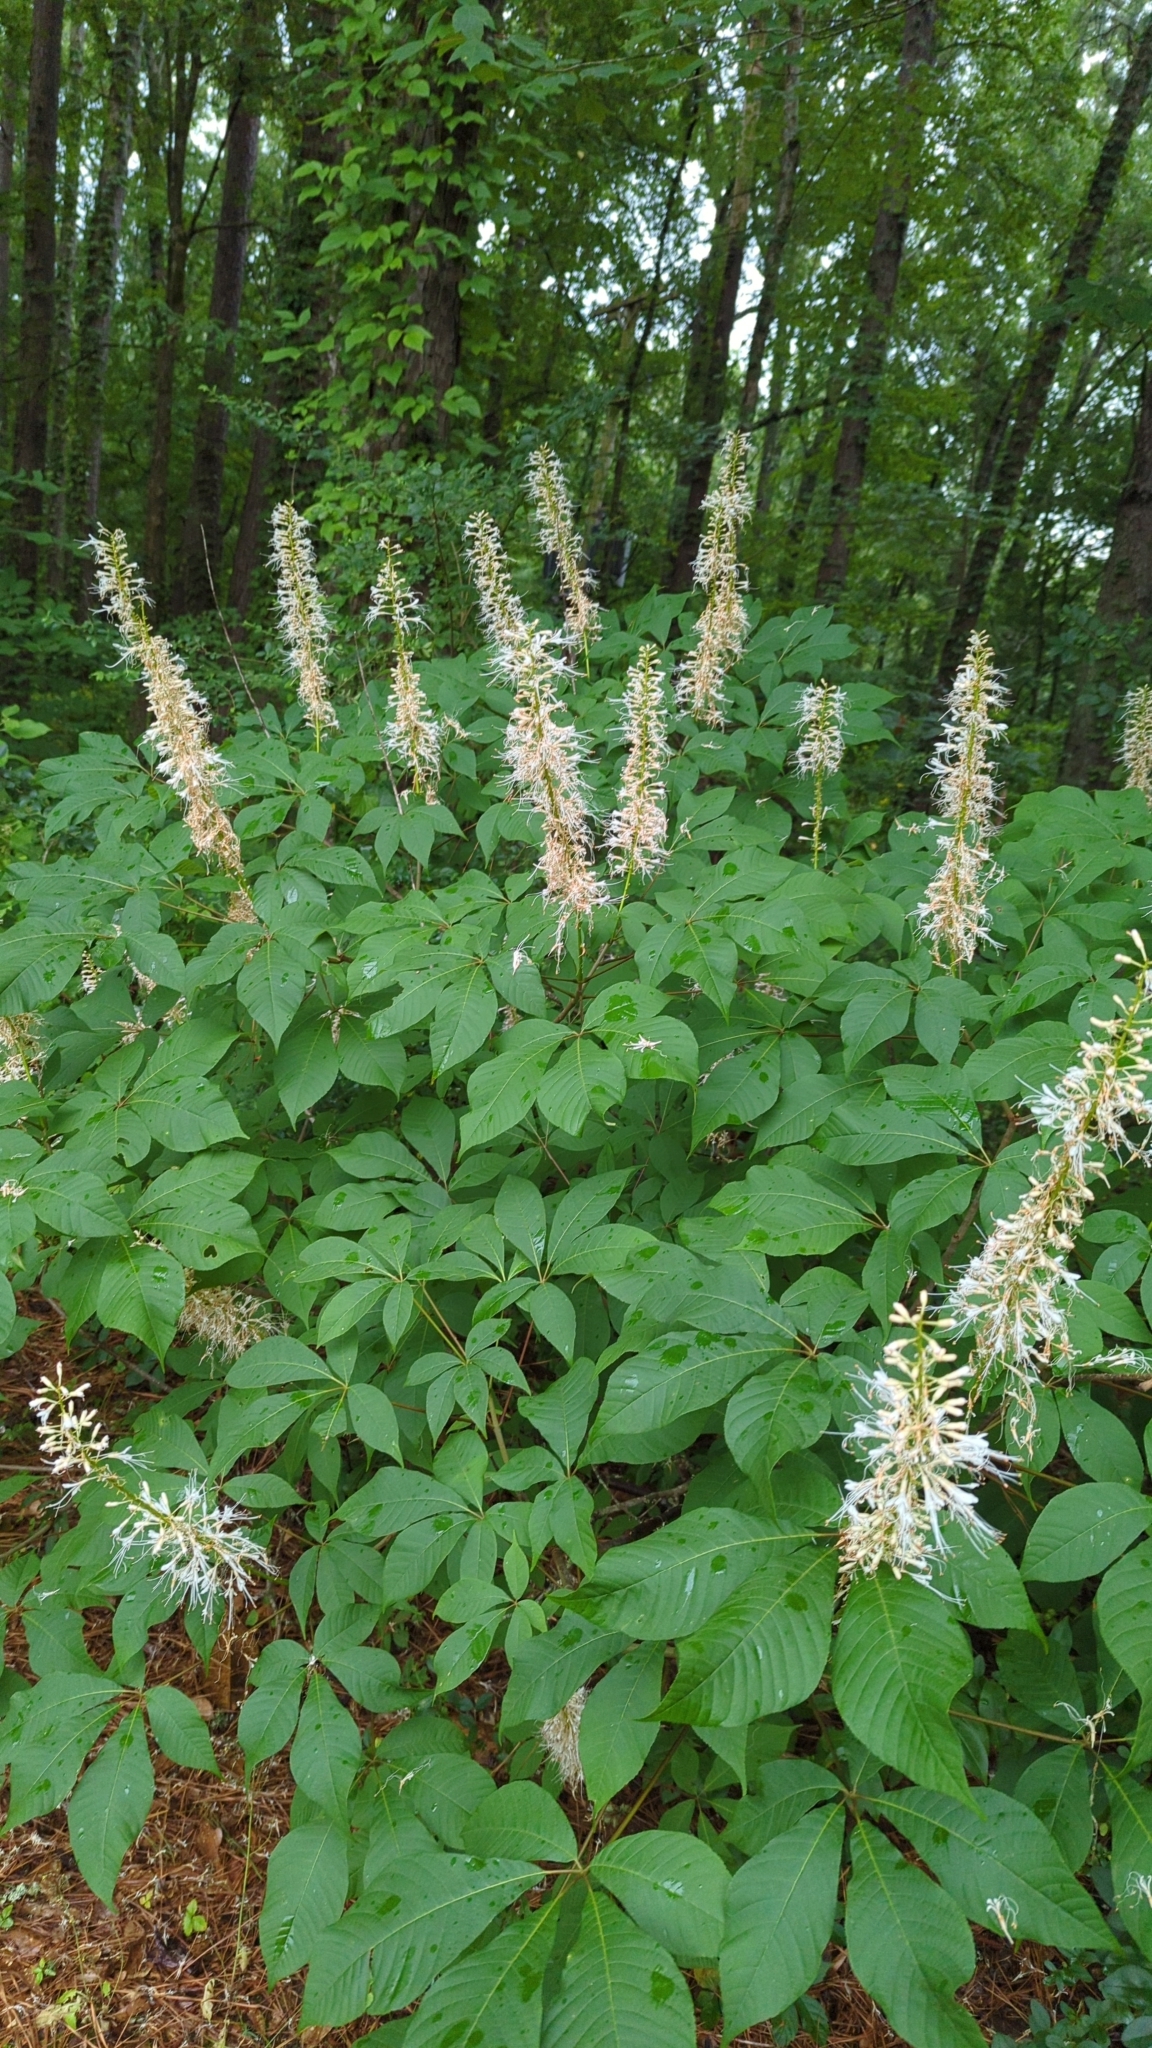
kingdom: Plantae
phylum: Tracheophyta
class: Magnoliopsida
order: Sapindales
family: Sapindaceae
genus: Aesculus
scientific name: Aesculus parviflora
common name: Bottlebrush buckeye
